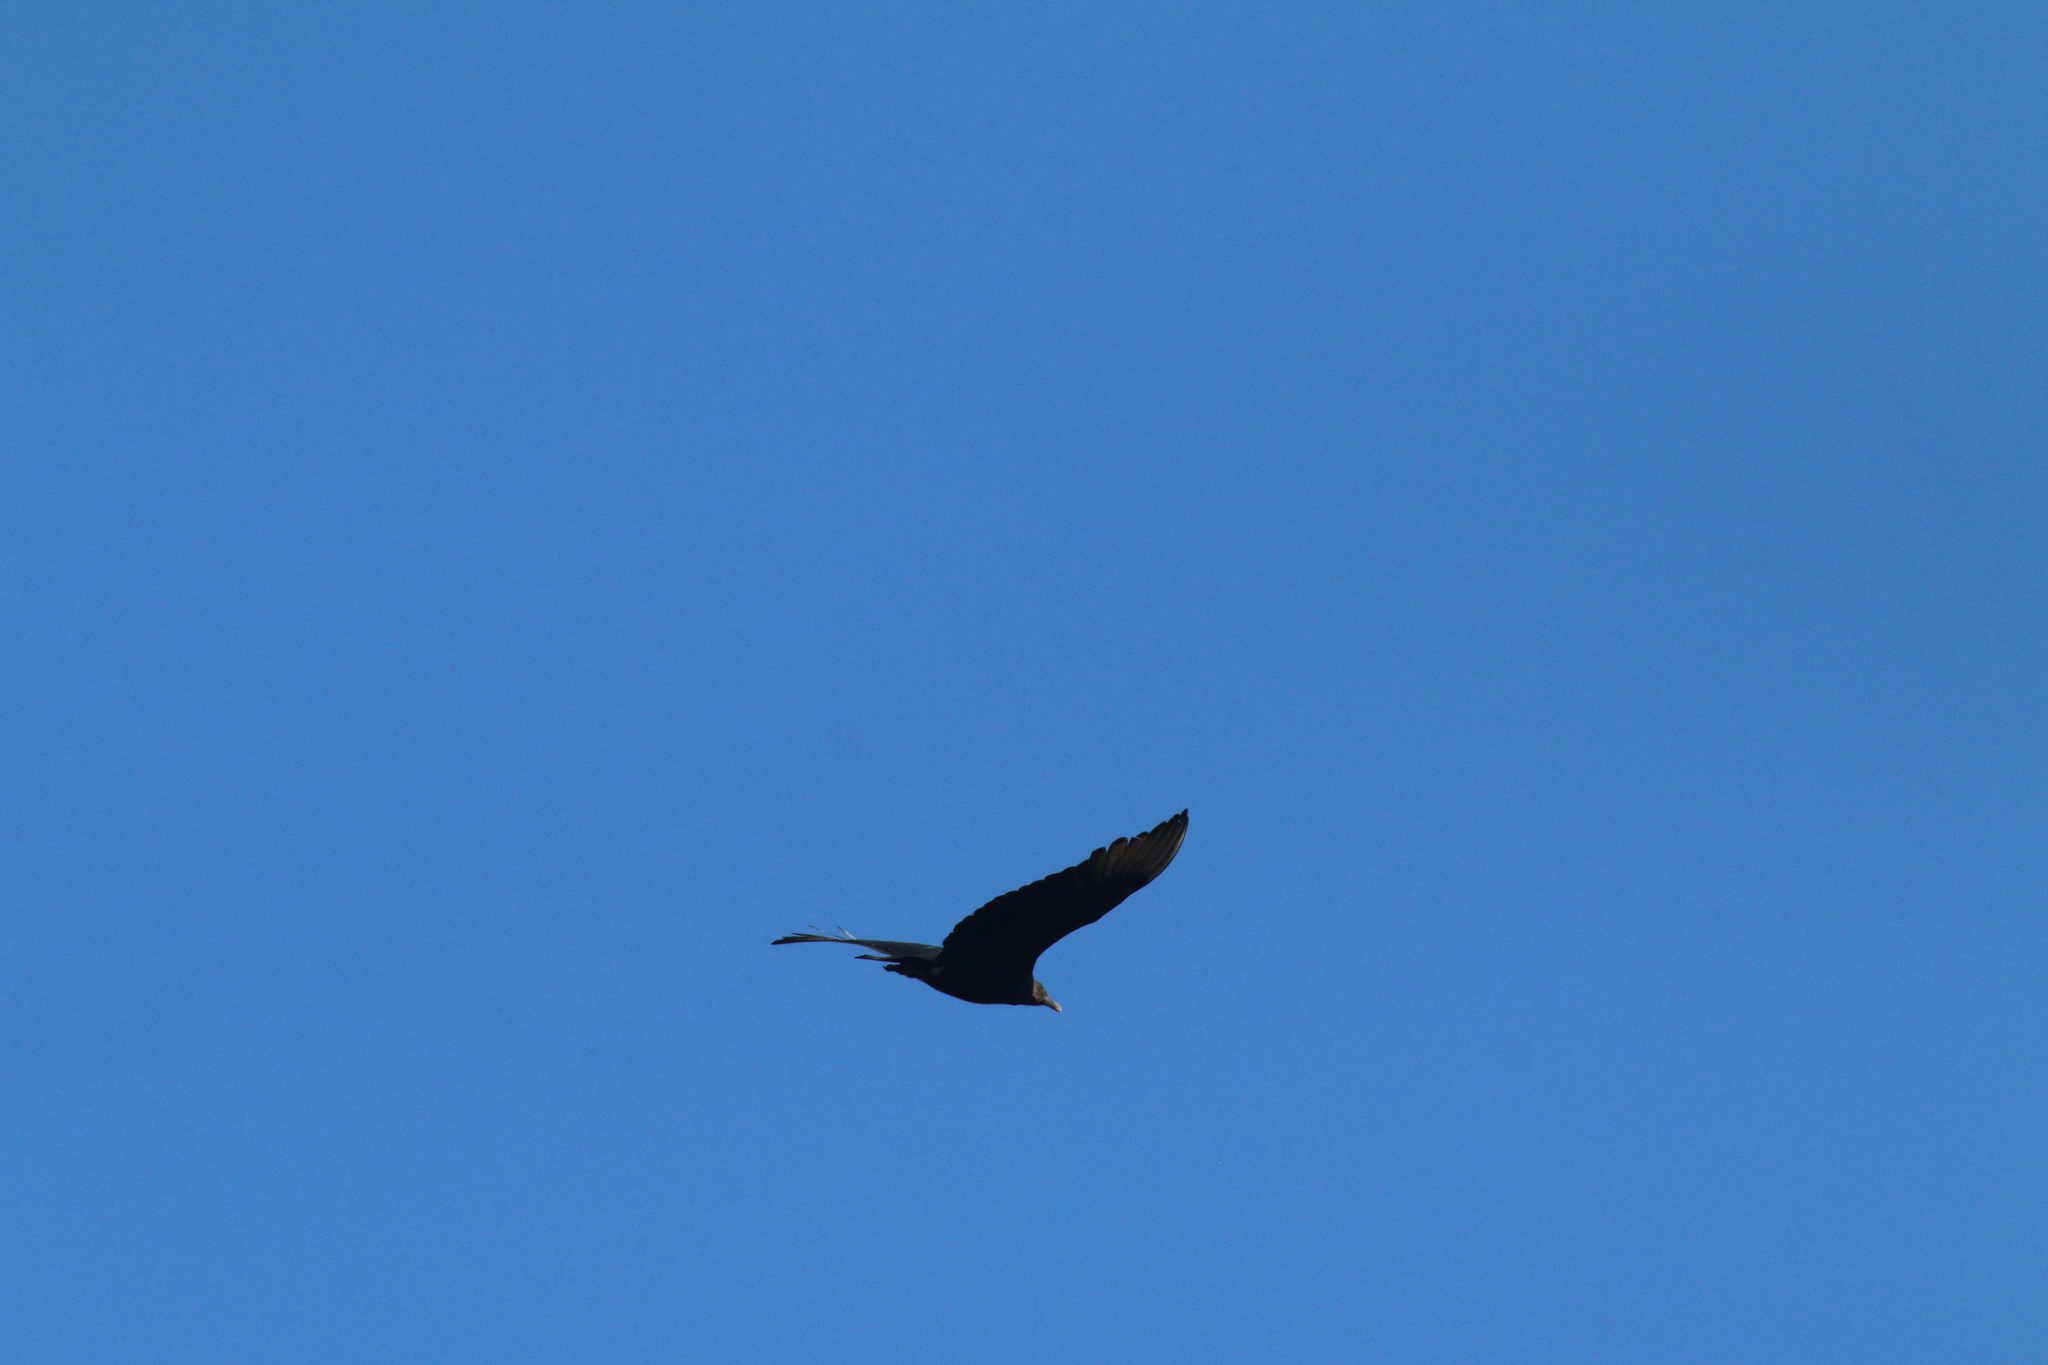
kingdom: Animalia
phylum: Chordata
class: Aves
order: Accipitriformes
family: Cathartidae
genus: Coragyps
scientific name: Coragyps atratus
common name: Black vulture
